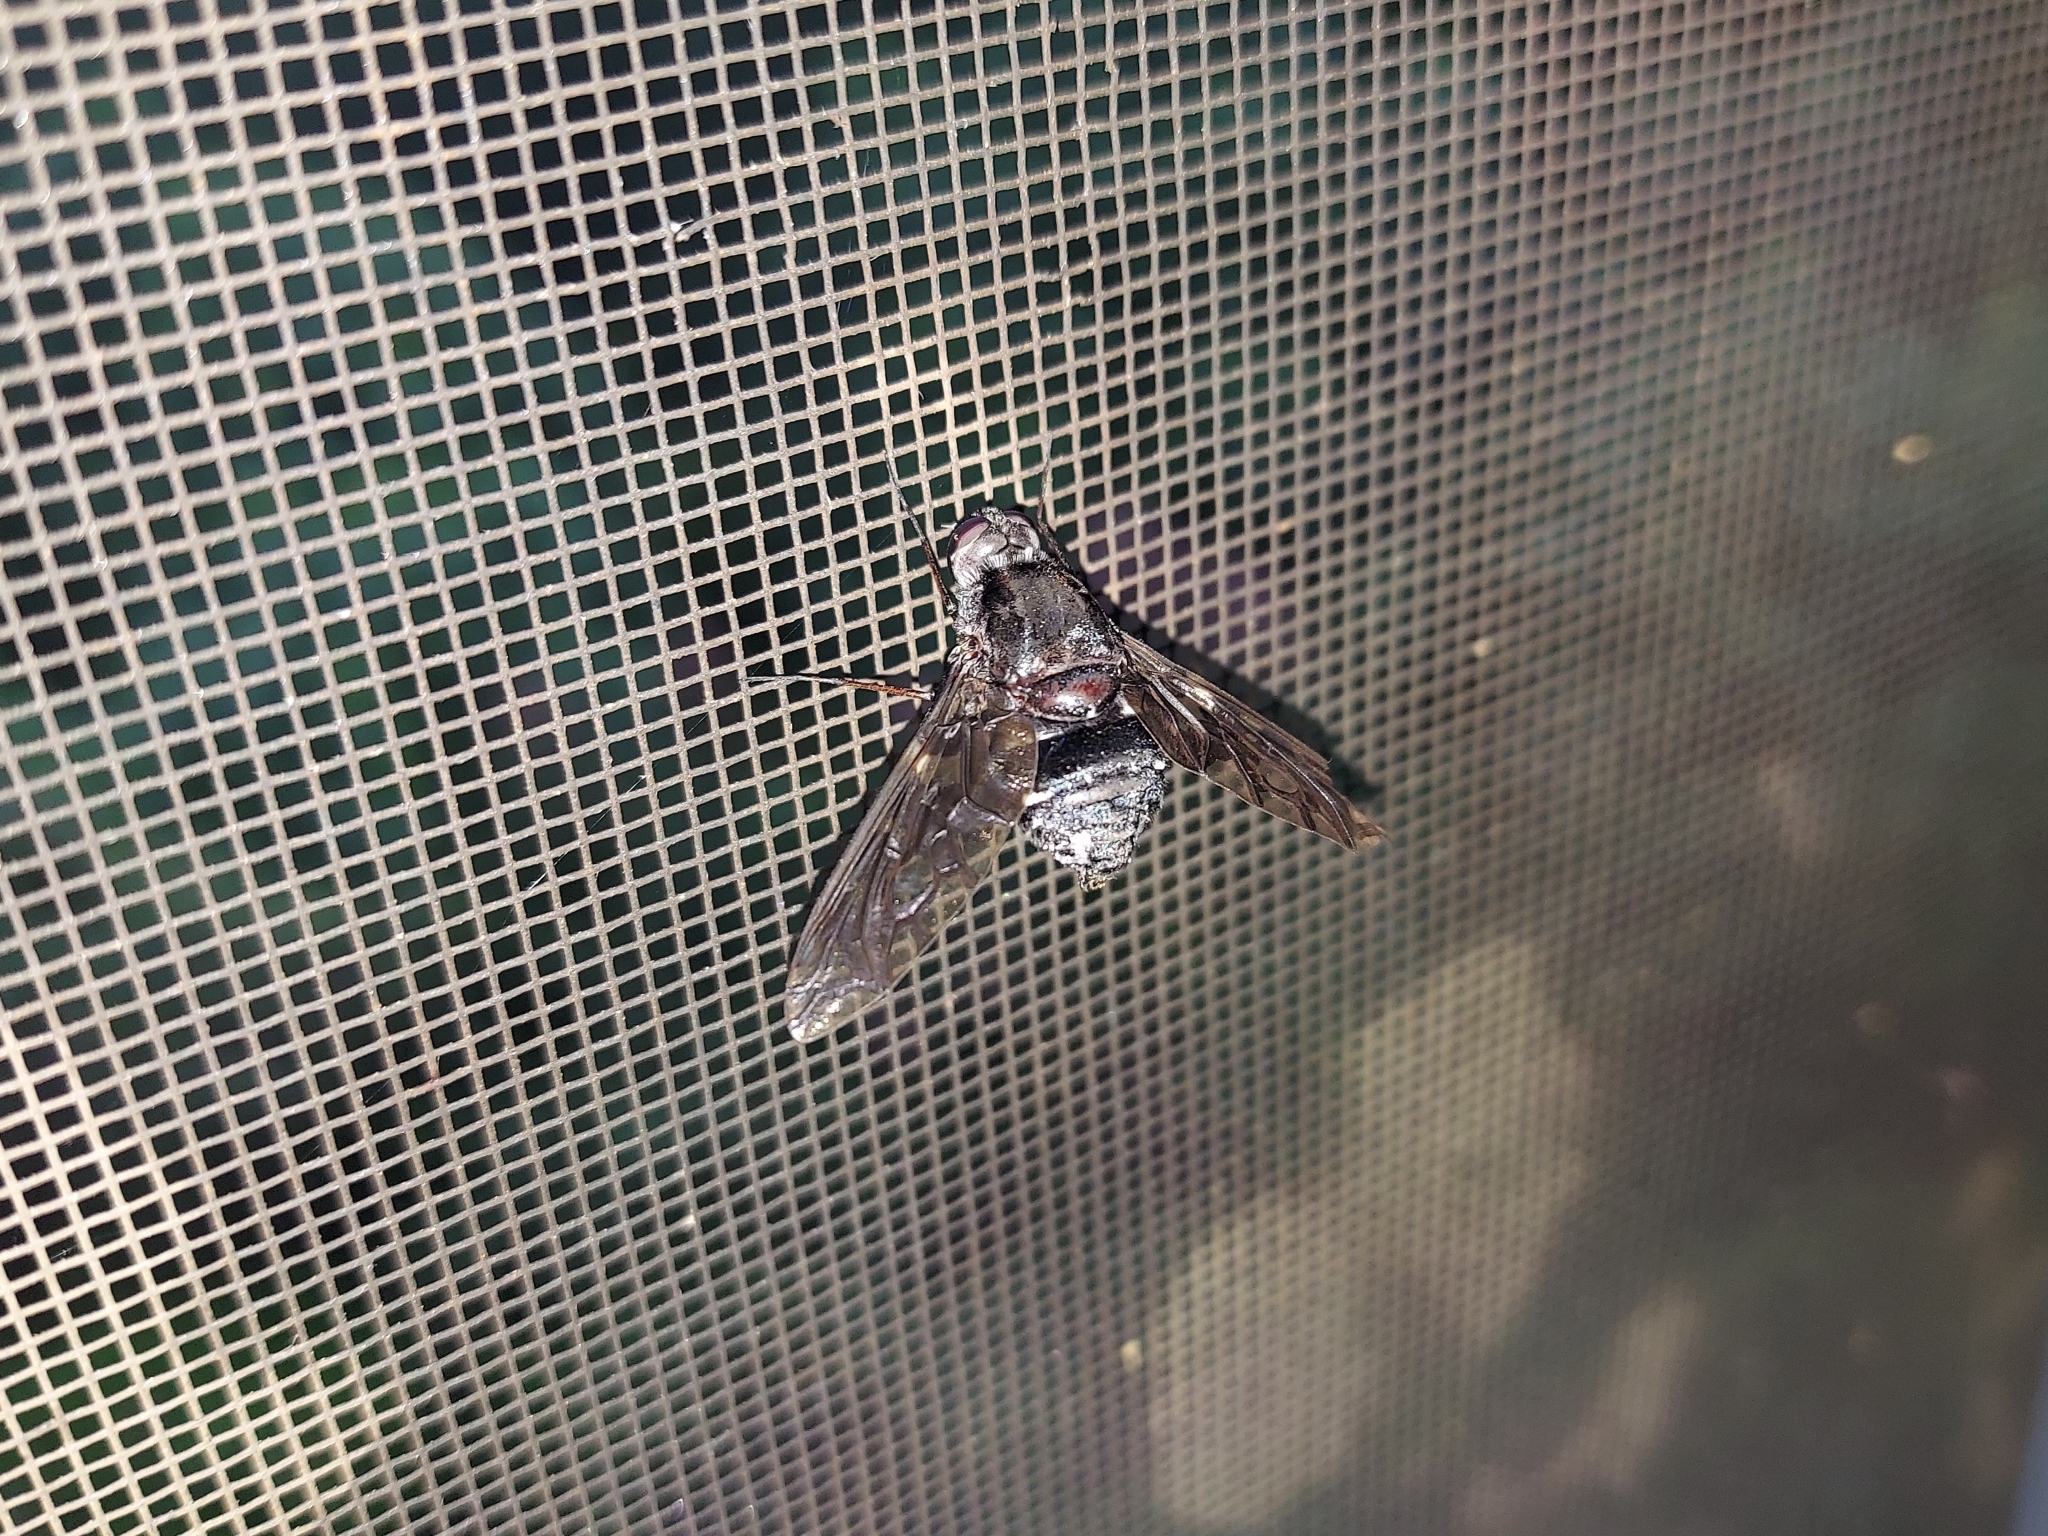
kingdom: Animalia
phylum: Arthropoda
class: Insecta
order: Diptera
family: Bombyliidae
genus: Xenox
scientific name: Xenox tigrinus
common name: Tiger bee fly
